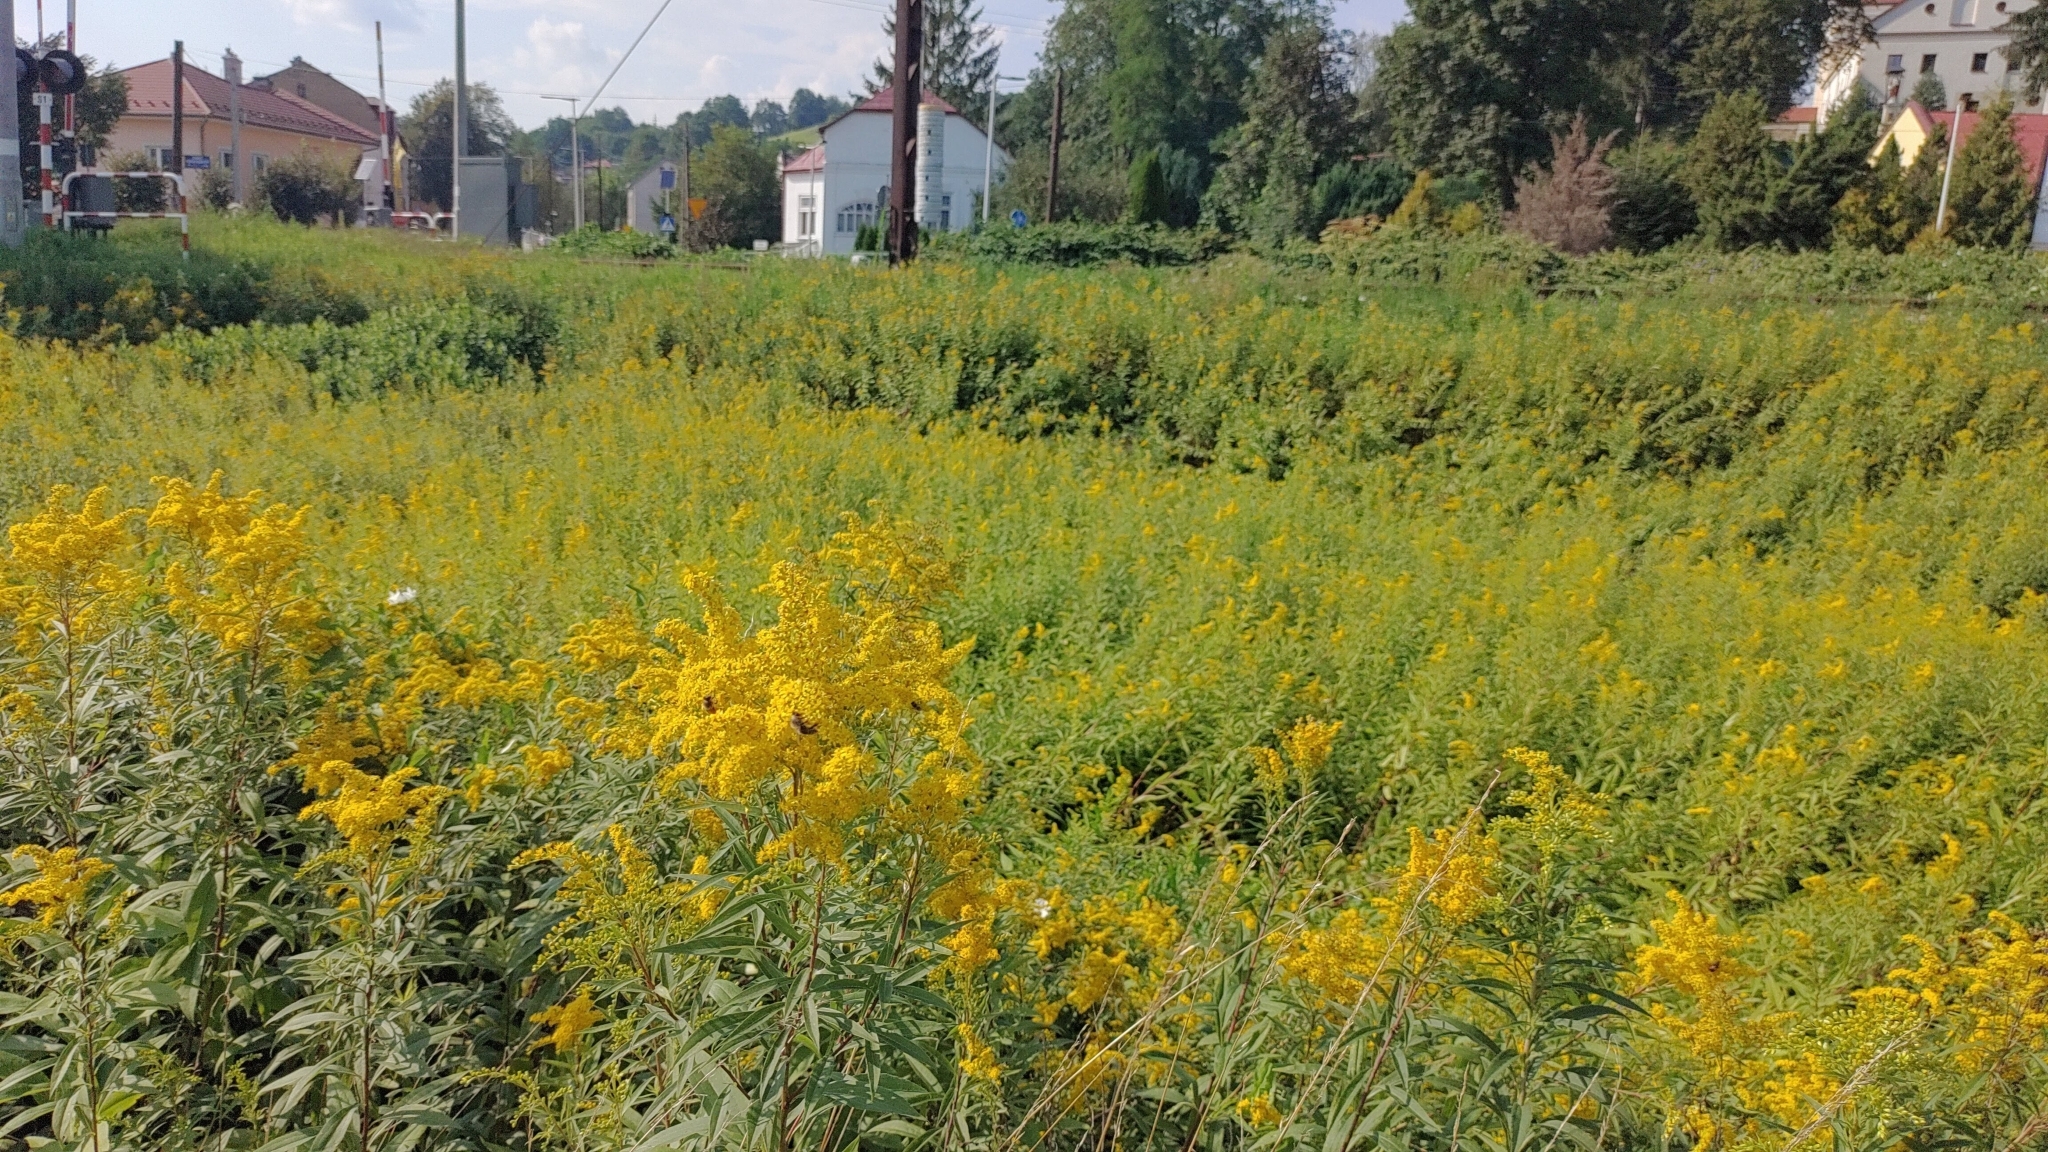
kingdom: Plantae
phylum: Tracheophyta
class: Magnoliopsida
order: Asterales
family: Asteraceae
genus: Solidago
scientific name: Solidago gigantea
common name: Giant goldenrod
